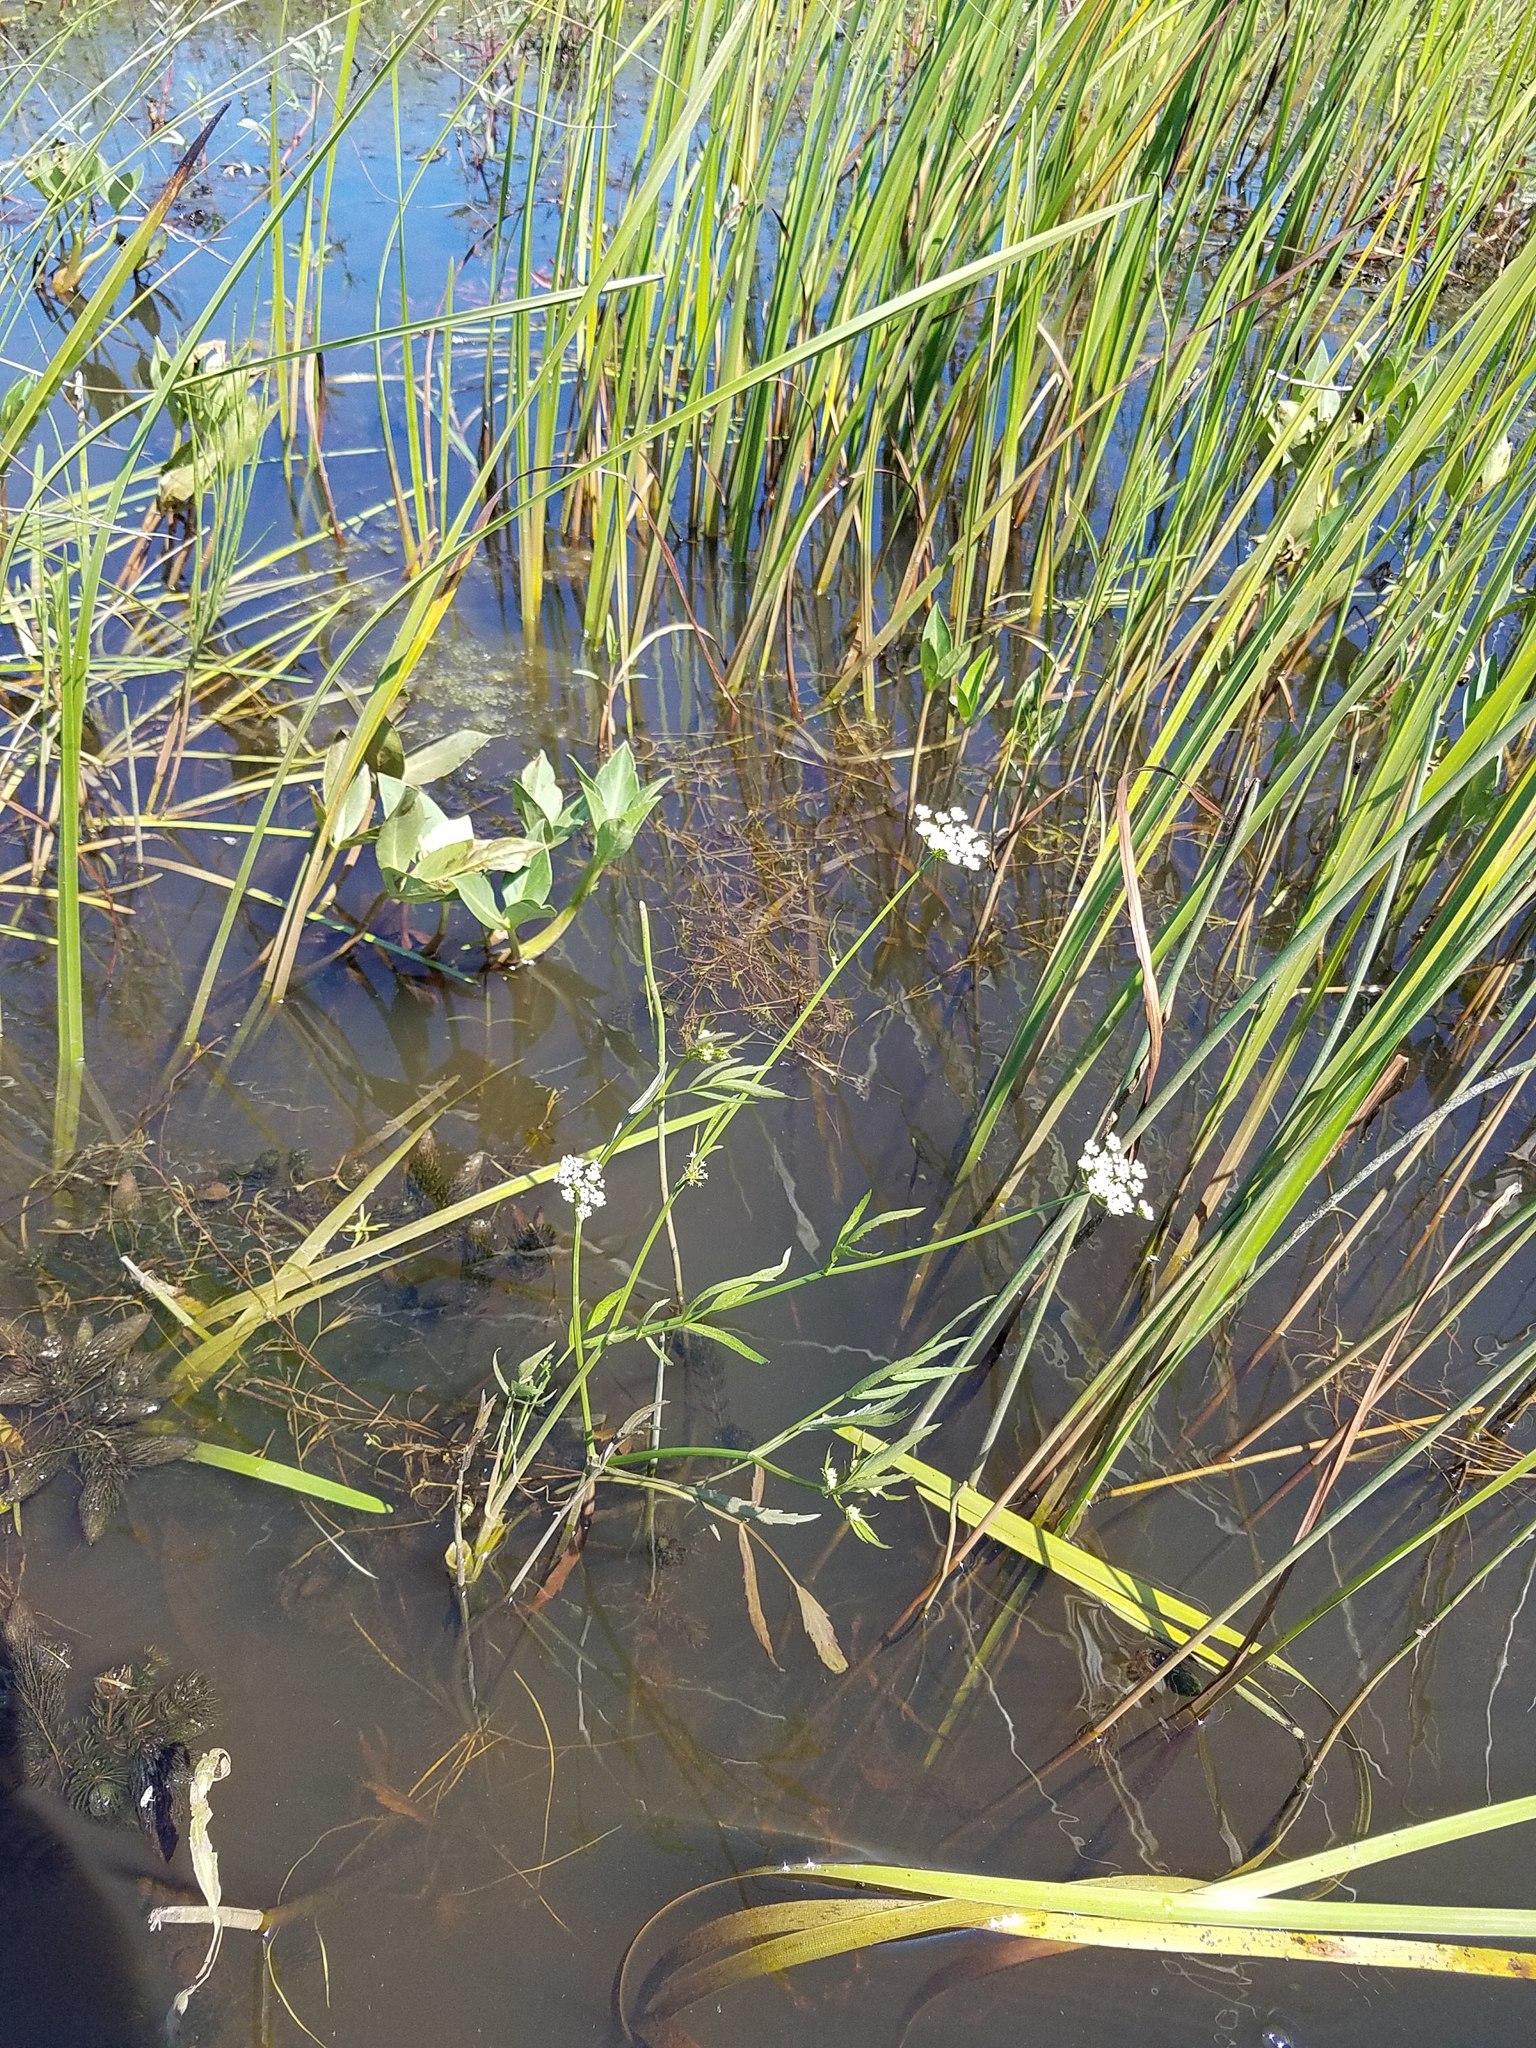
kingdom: Plantae
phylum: Tracheophyta
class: Magnoliopsida
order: Apiales
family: Apiaceae
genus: Sium
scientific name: Sium suave
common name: Hemlock water-parsnip
